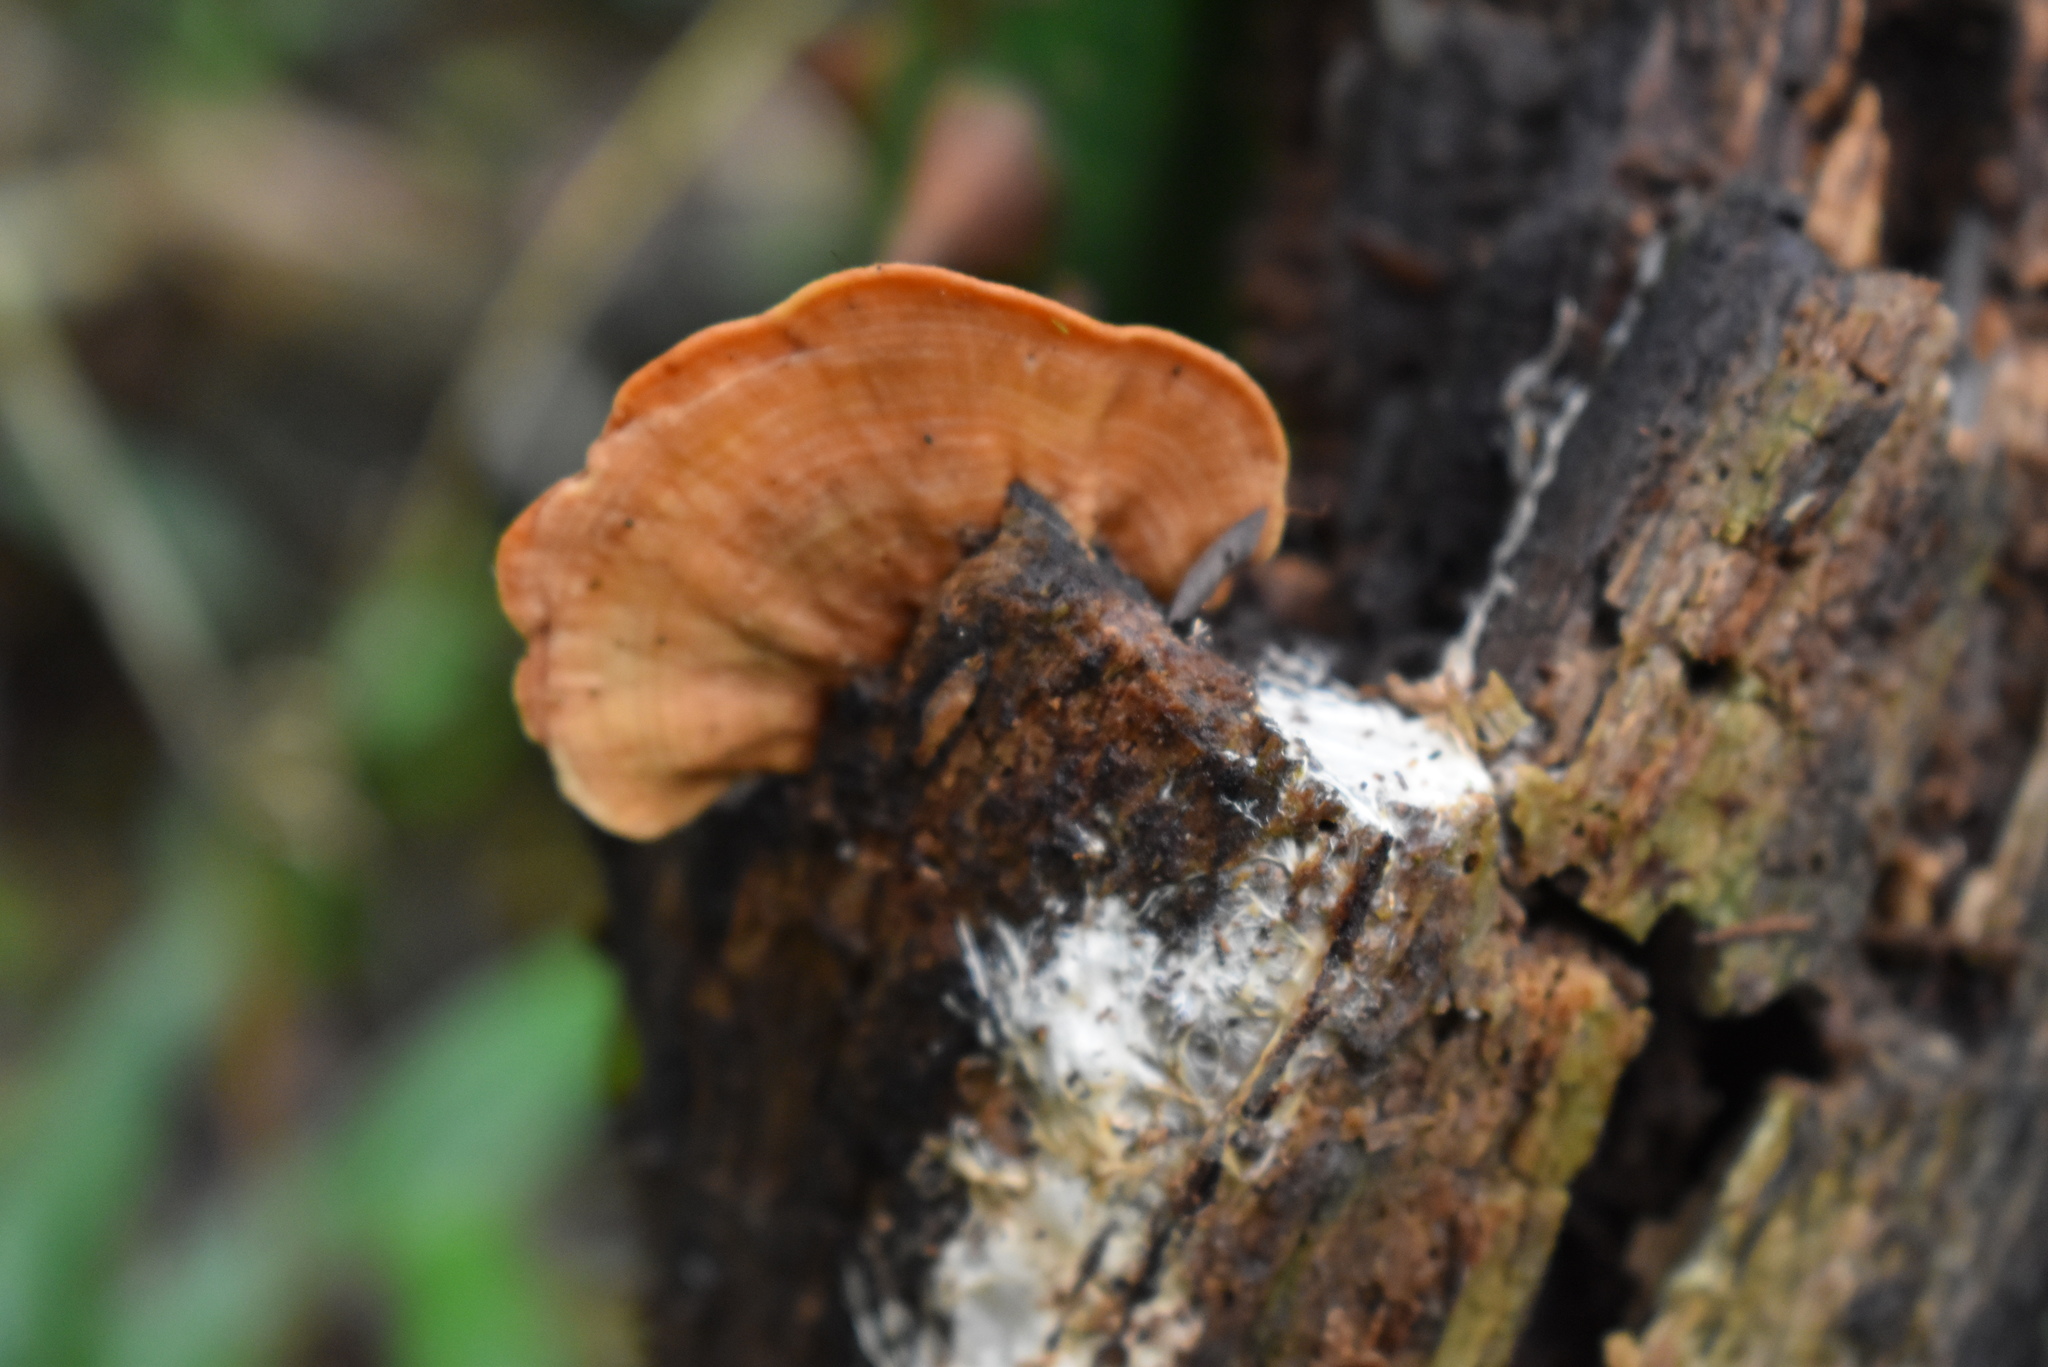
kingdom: Fungi
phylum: Basidiomycota
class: Agaricomycetes
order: Polyporales
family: Polyporaceae
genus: Trametes
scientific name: Trametes coccinea
